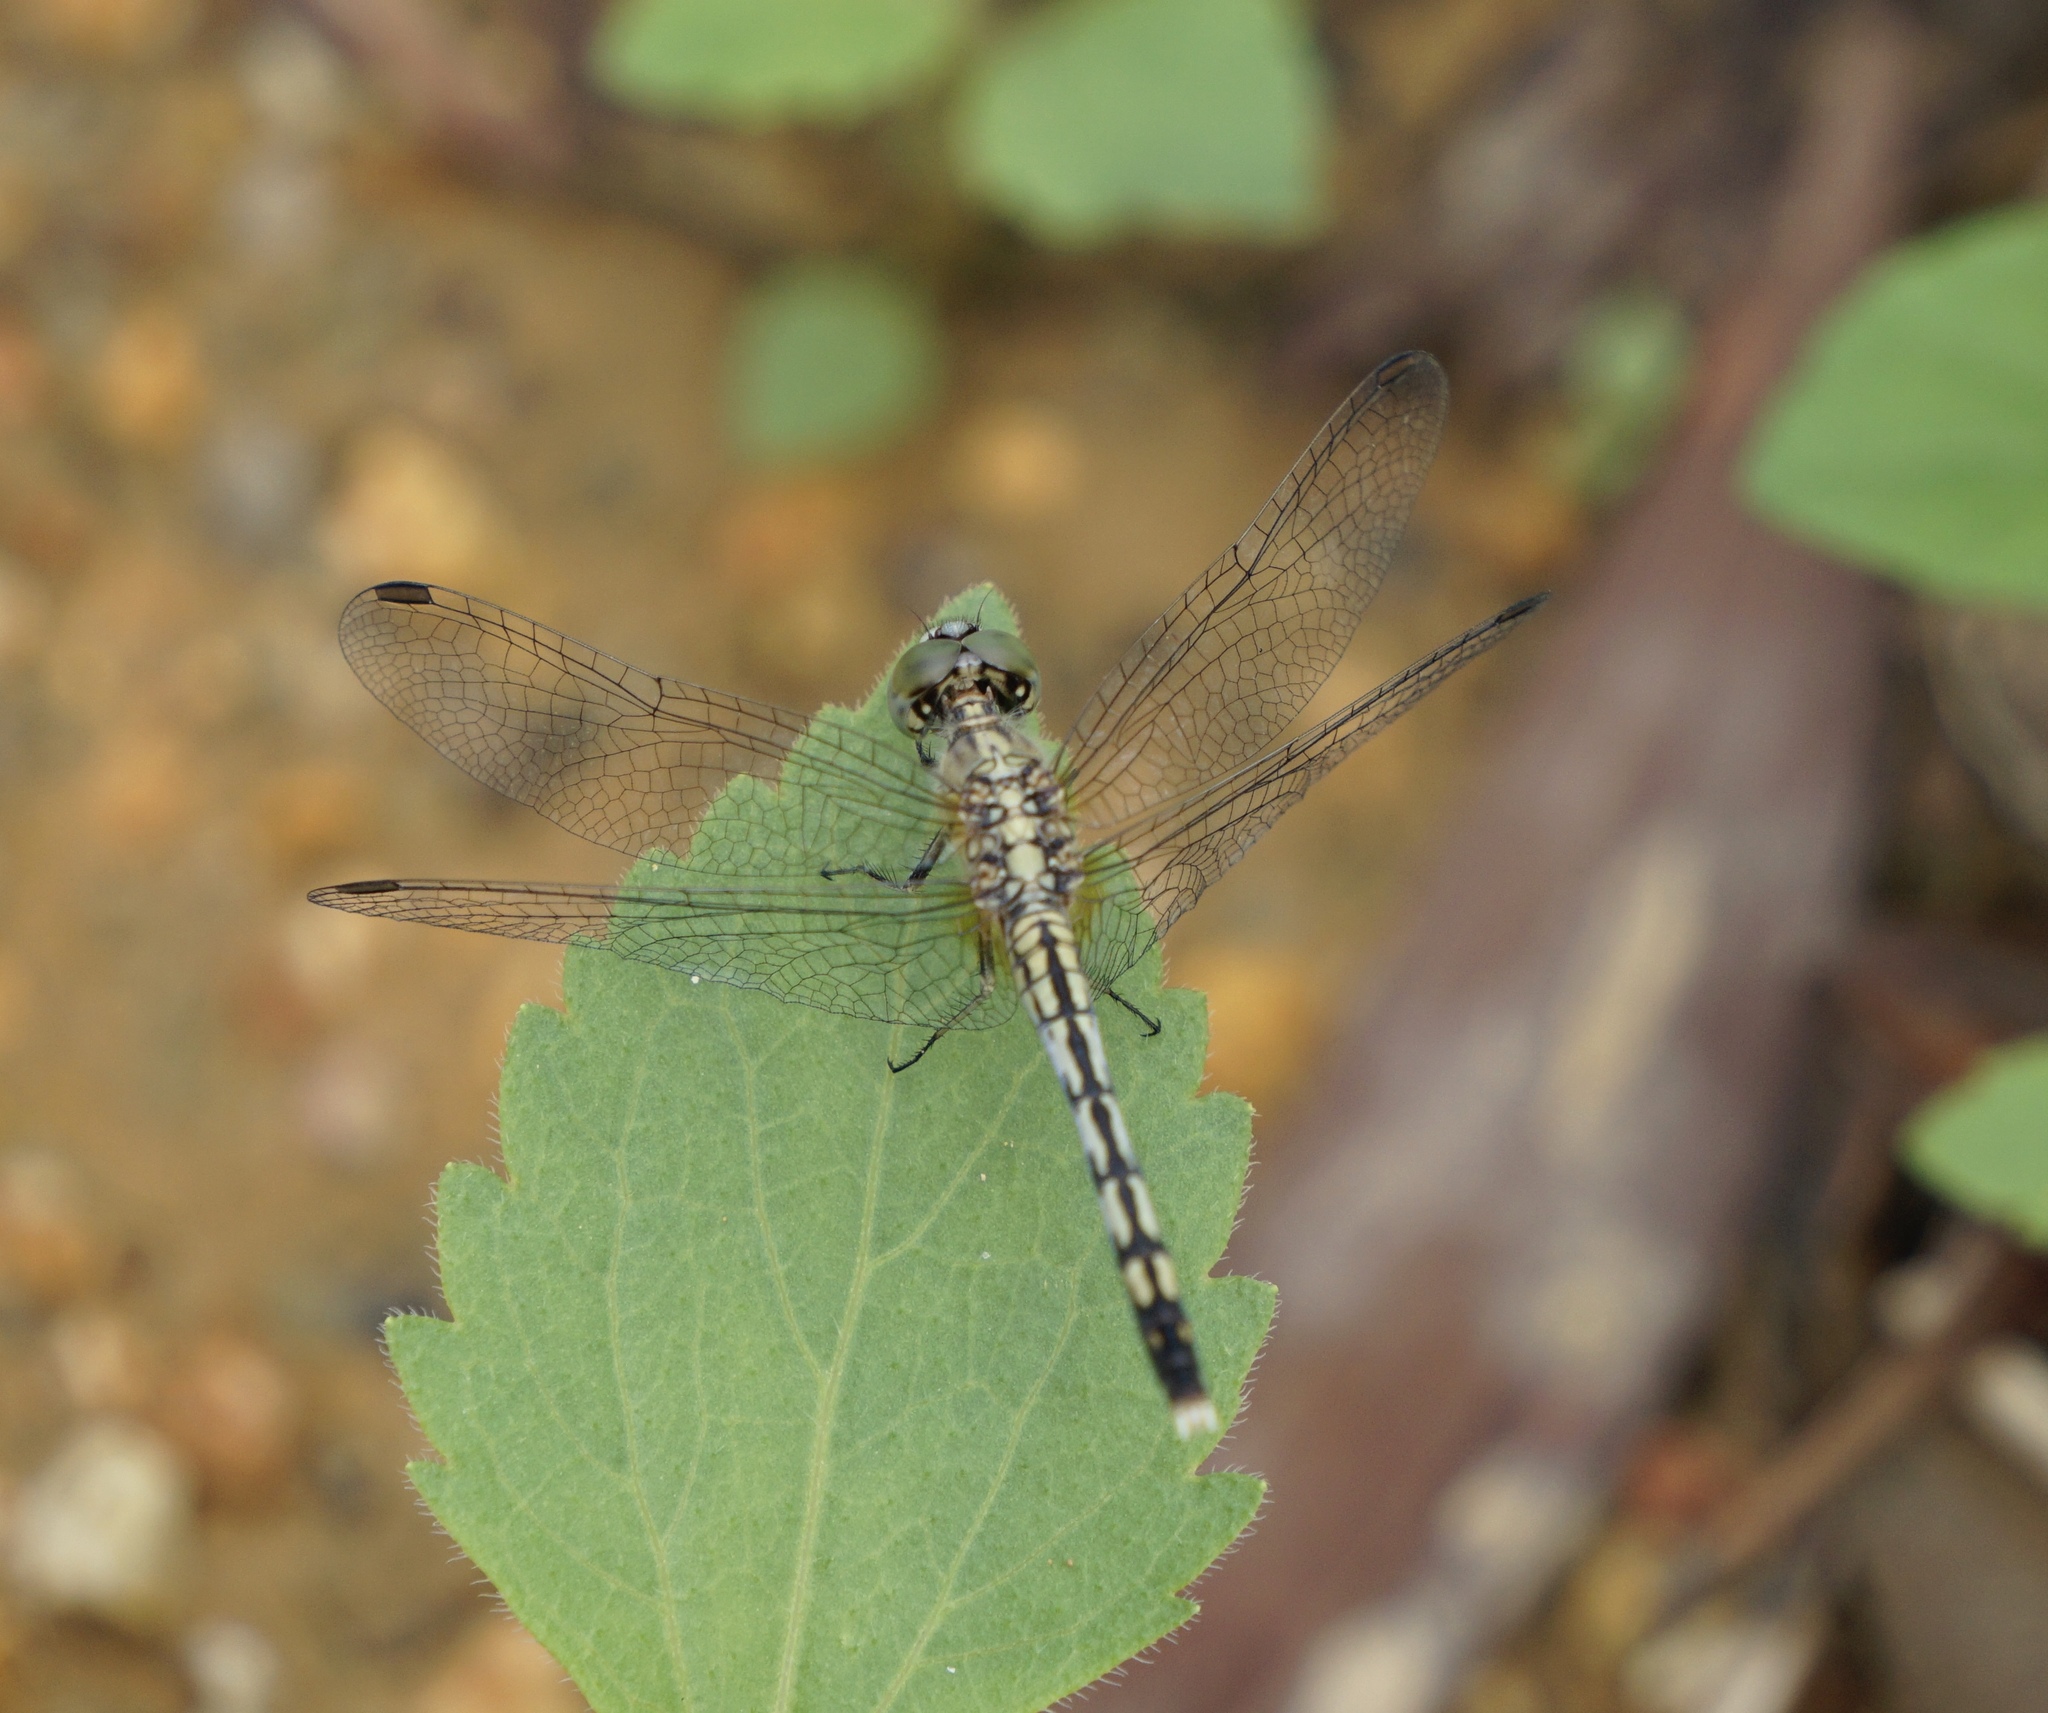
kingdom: Animalia
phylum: Arthropoda
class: Insecta
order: Odonata
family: Libellulidae
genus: Diplacodes
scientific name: Diplacodes trivialis
